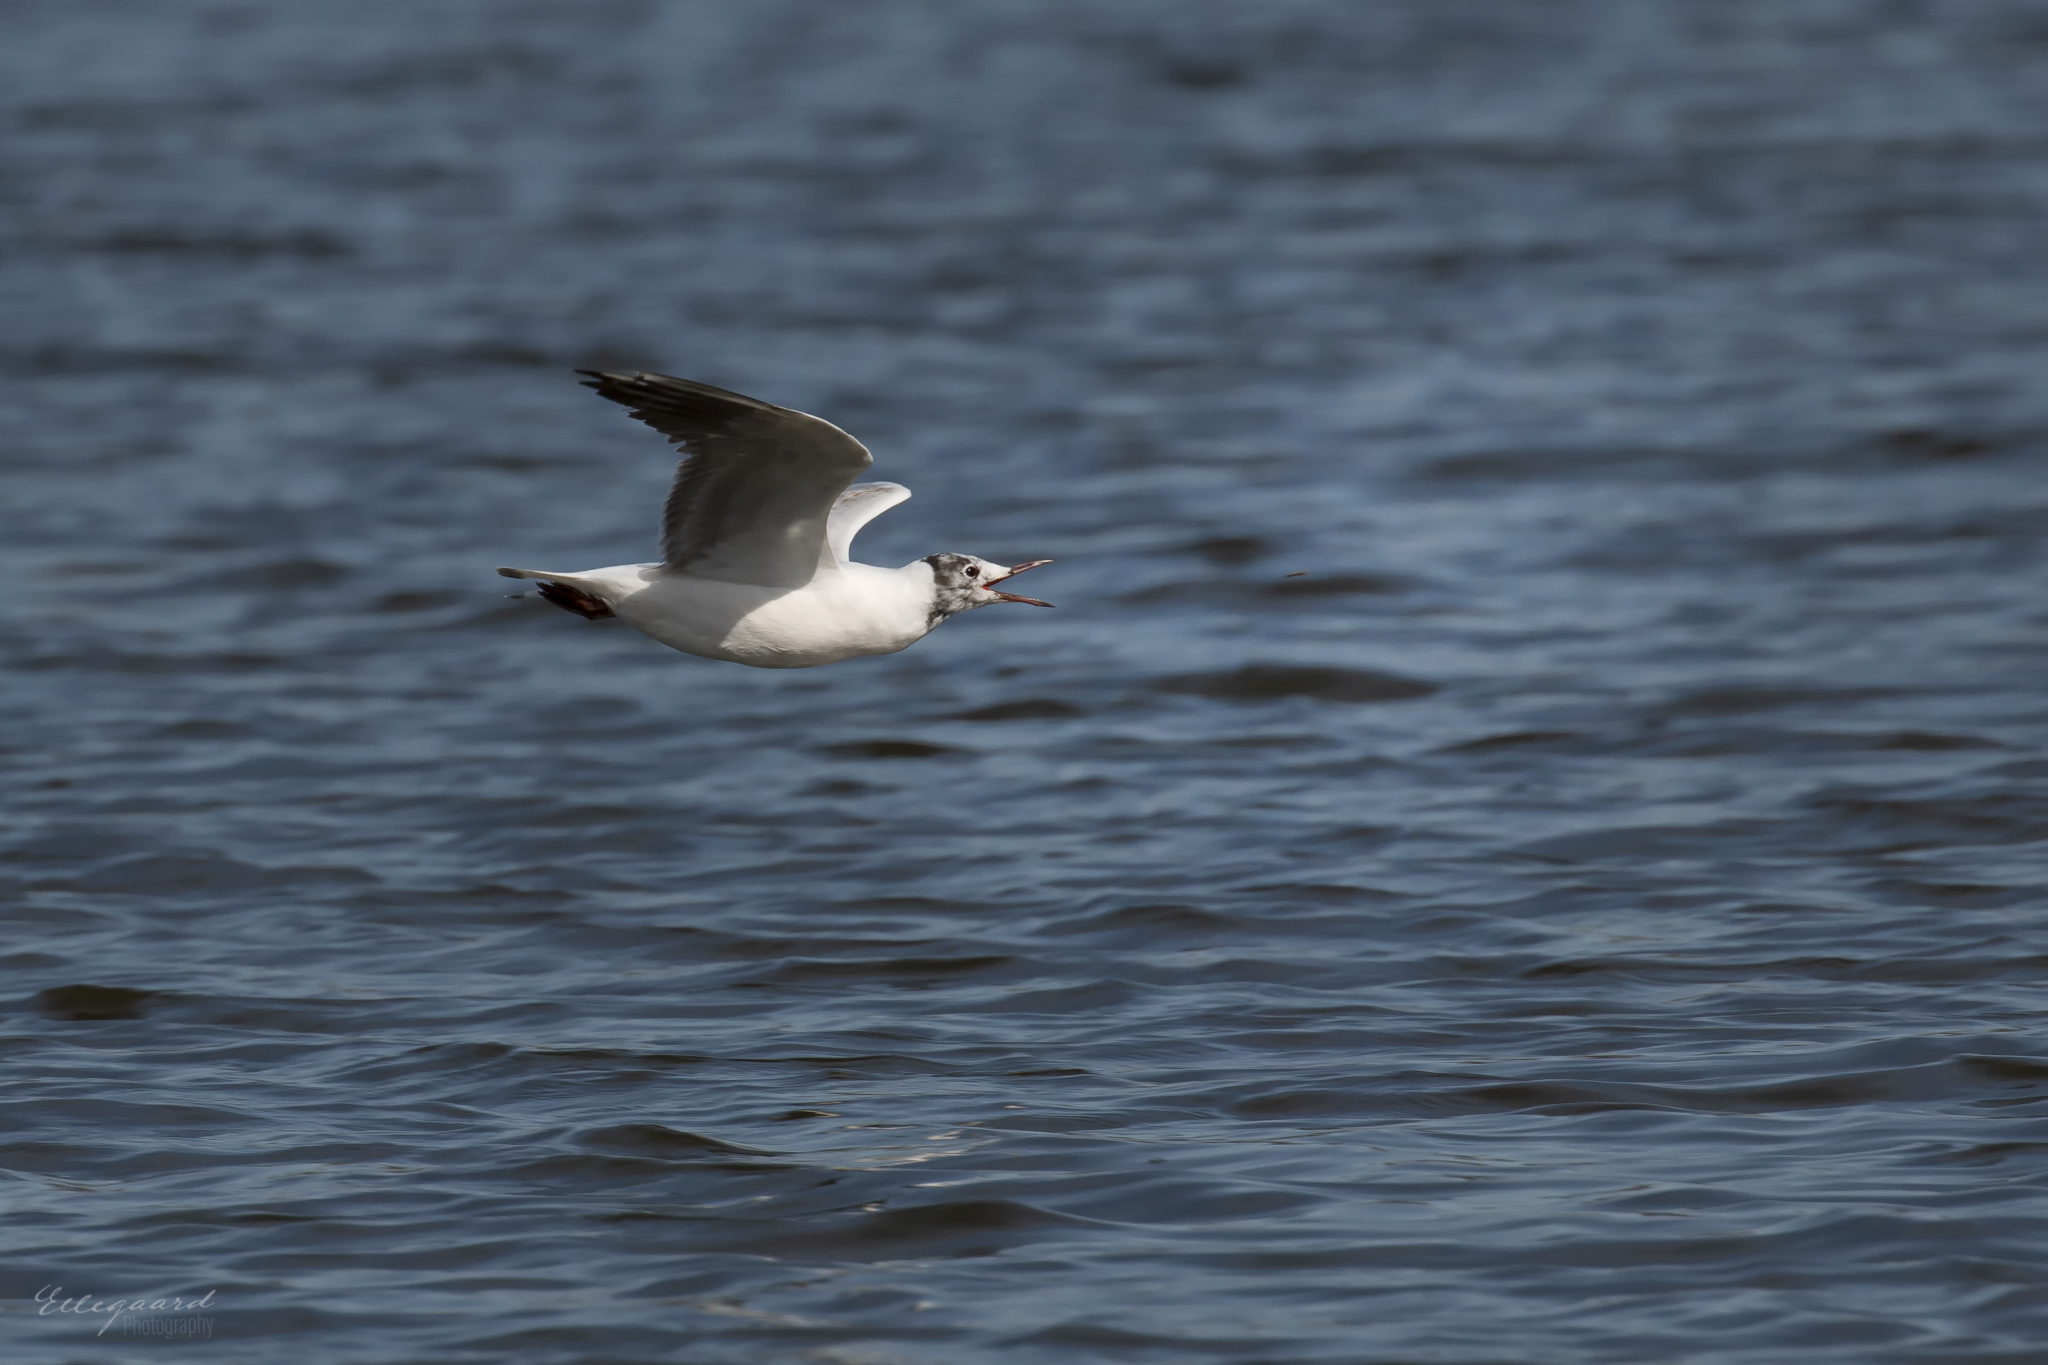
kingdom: Animalia
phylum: Chordata
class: Aves
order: Charadriiformes
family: Laridae
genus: Chroicocephalus
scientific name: Chroicocephalus ridibundus
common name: Black-headed gull
